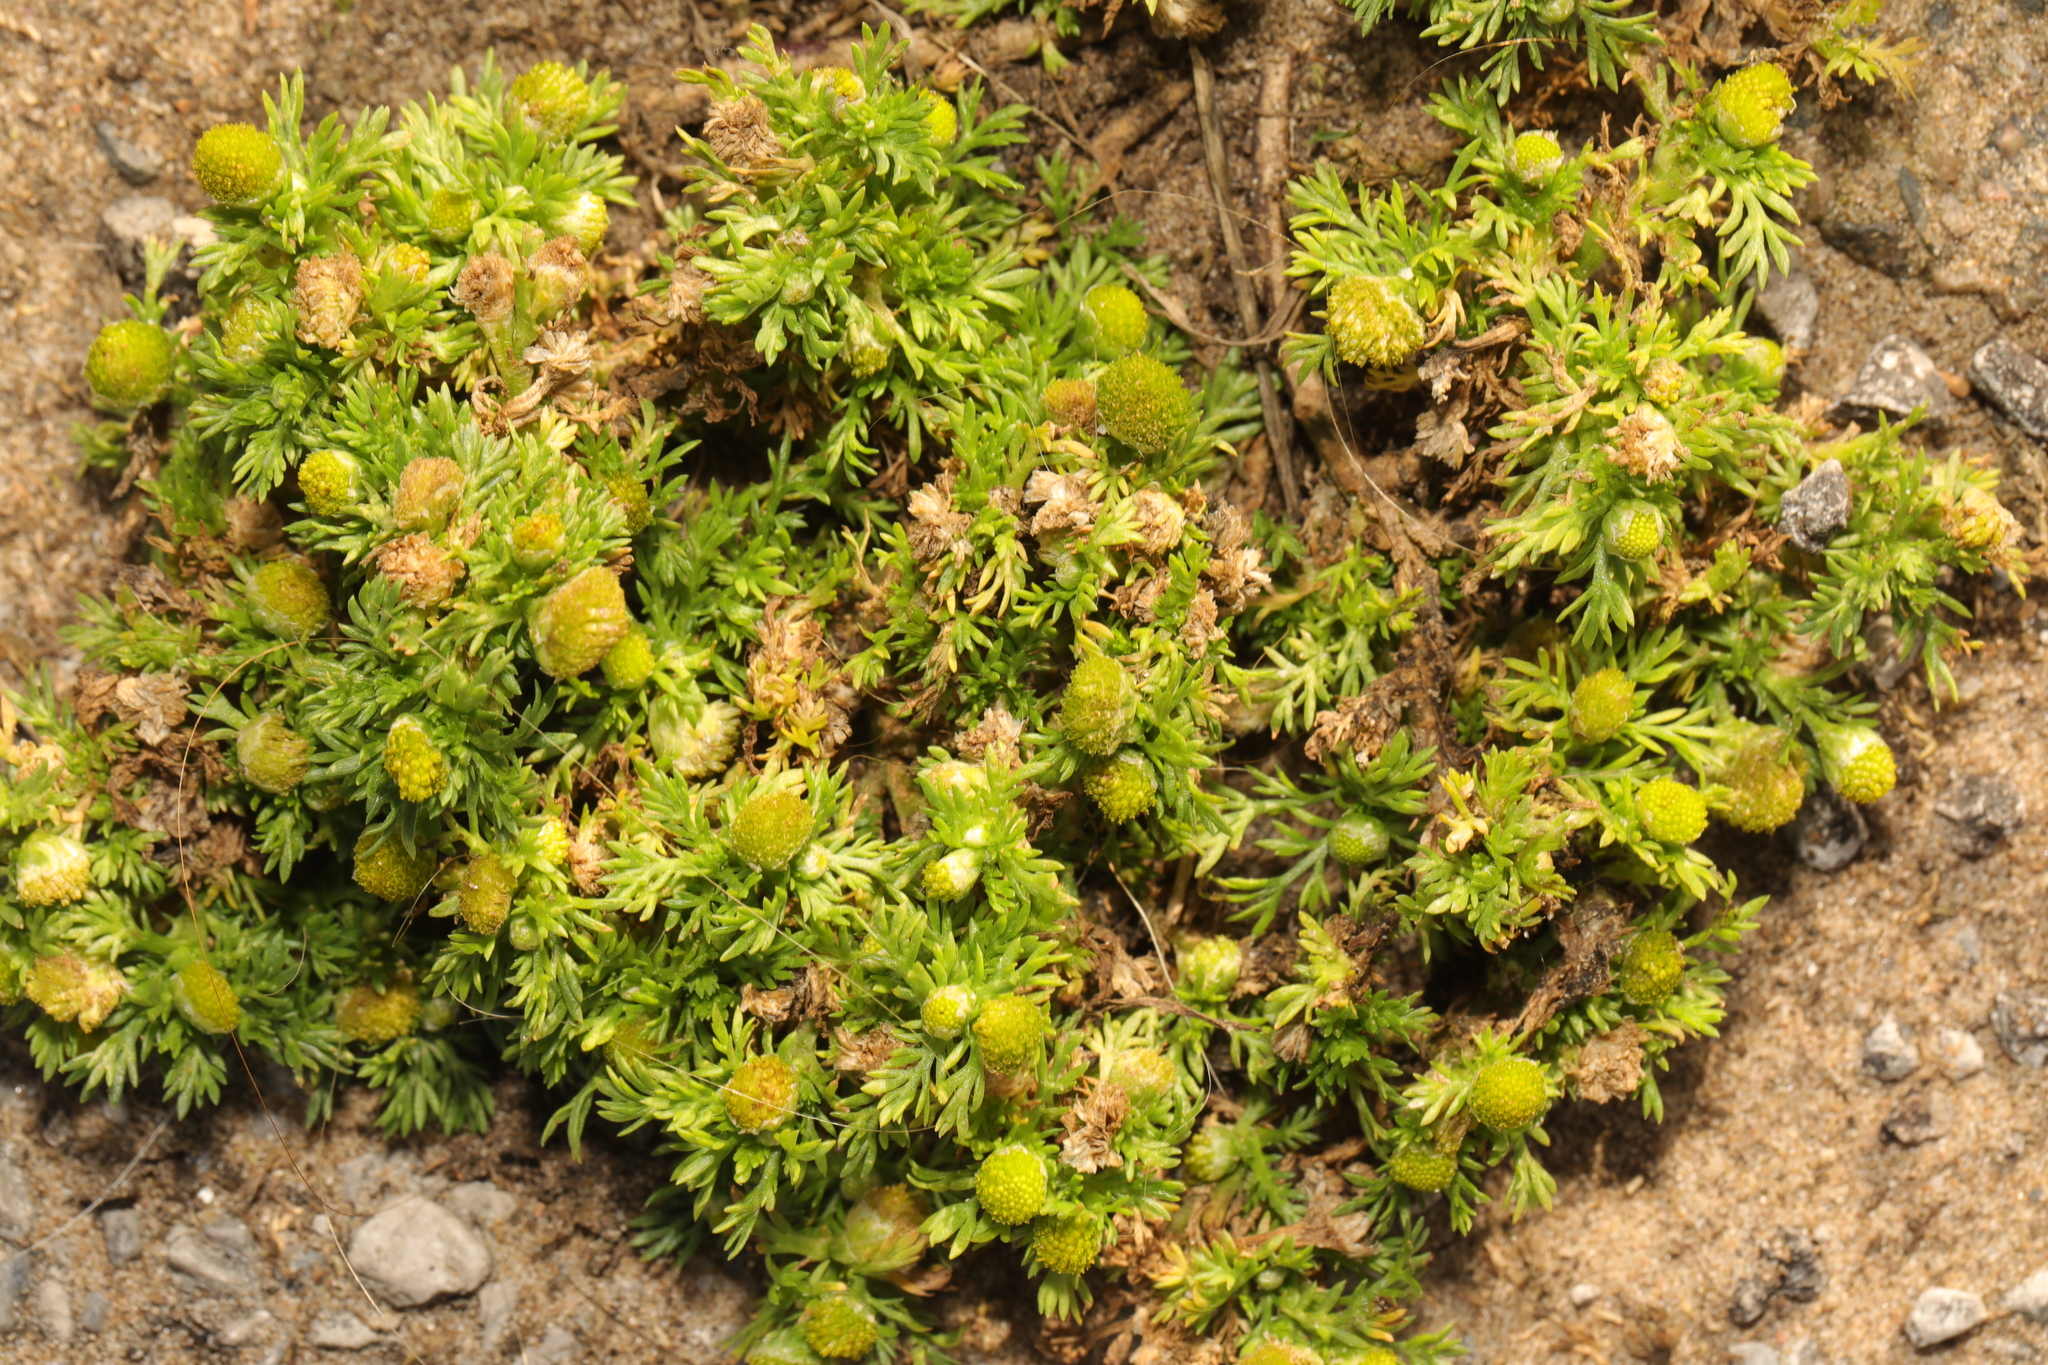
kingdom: Plantae
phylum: Tracheophyta
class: Magnoliopsida
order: Asterales
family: Asteraceae
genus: Matricaria
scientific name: Matricaria discoidea
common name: Disc mayweed
